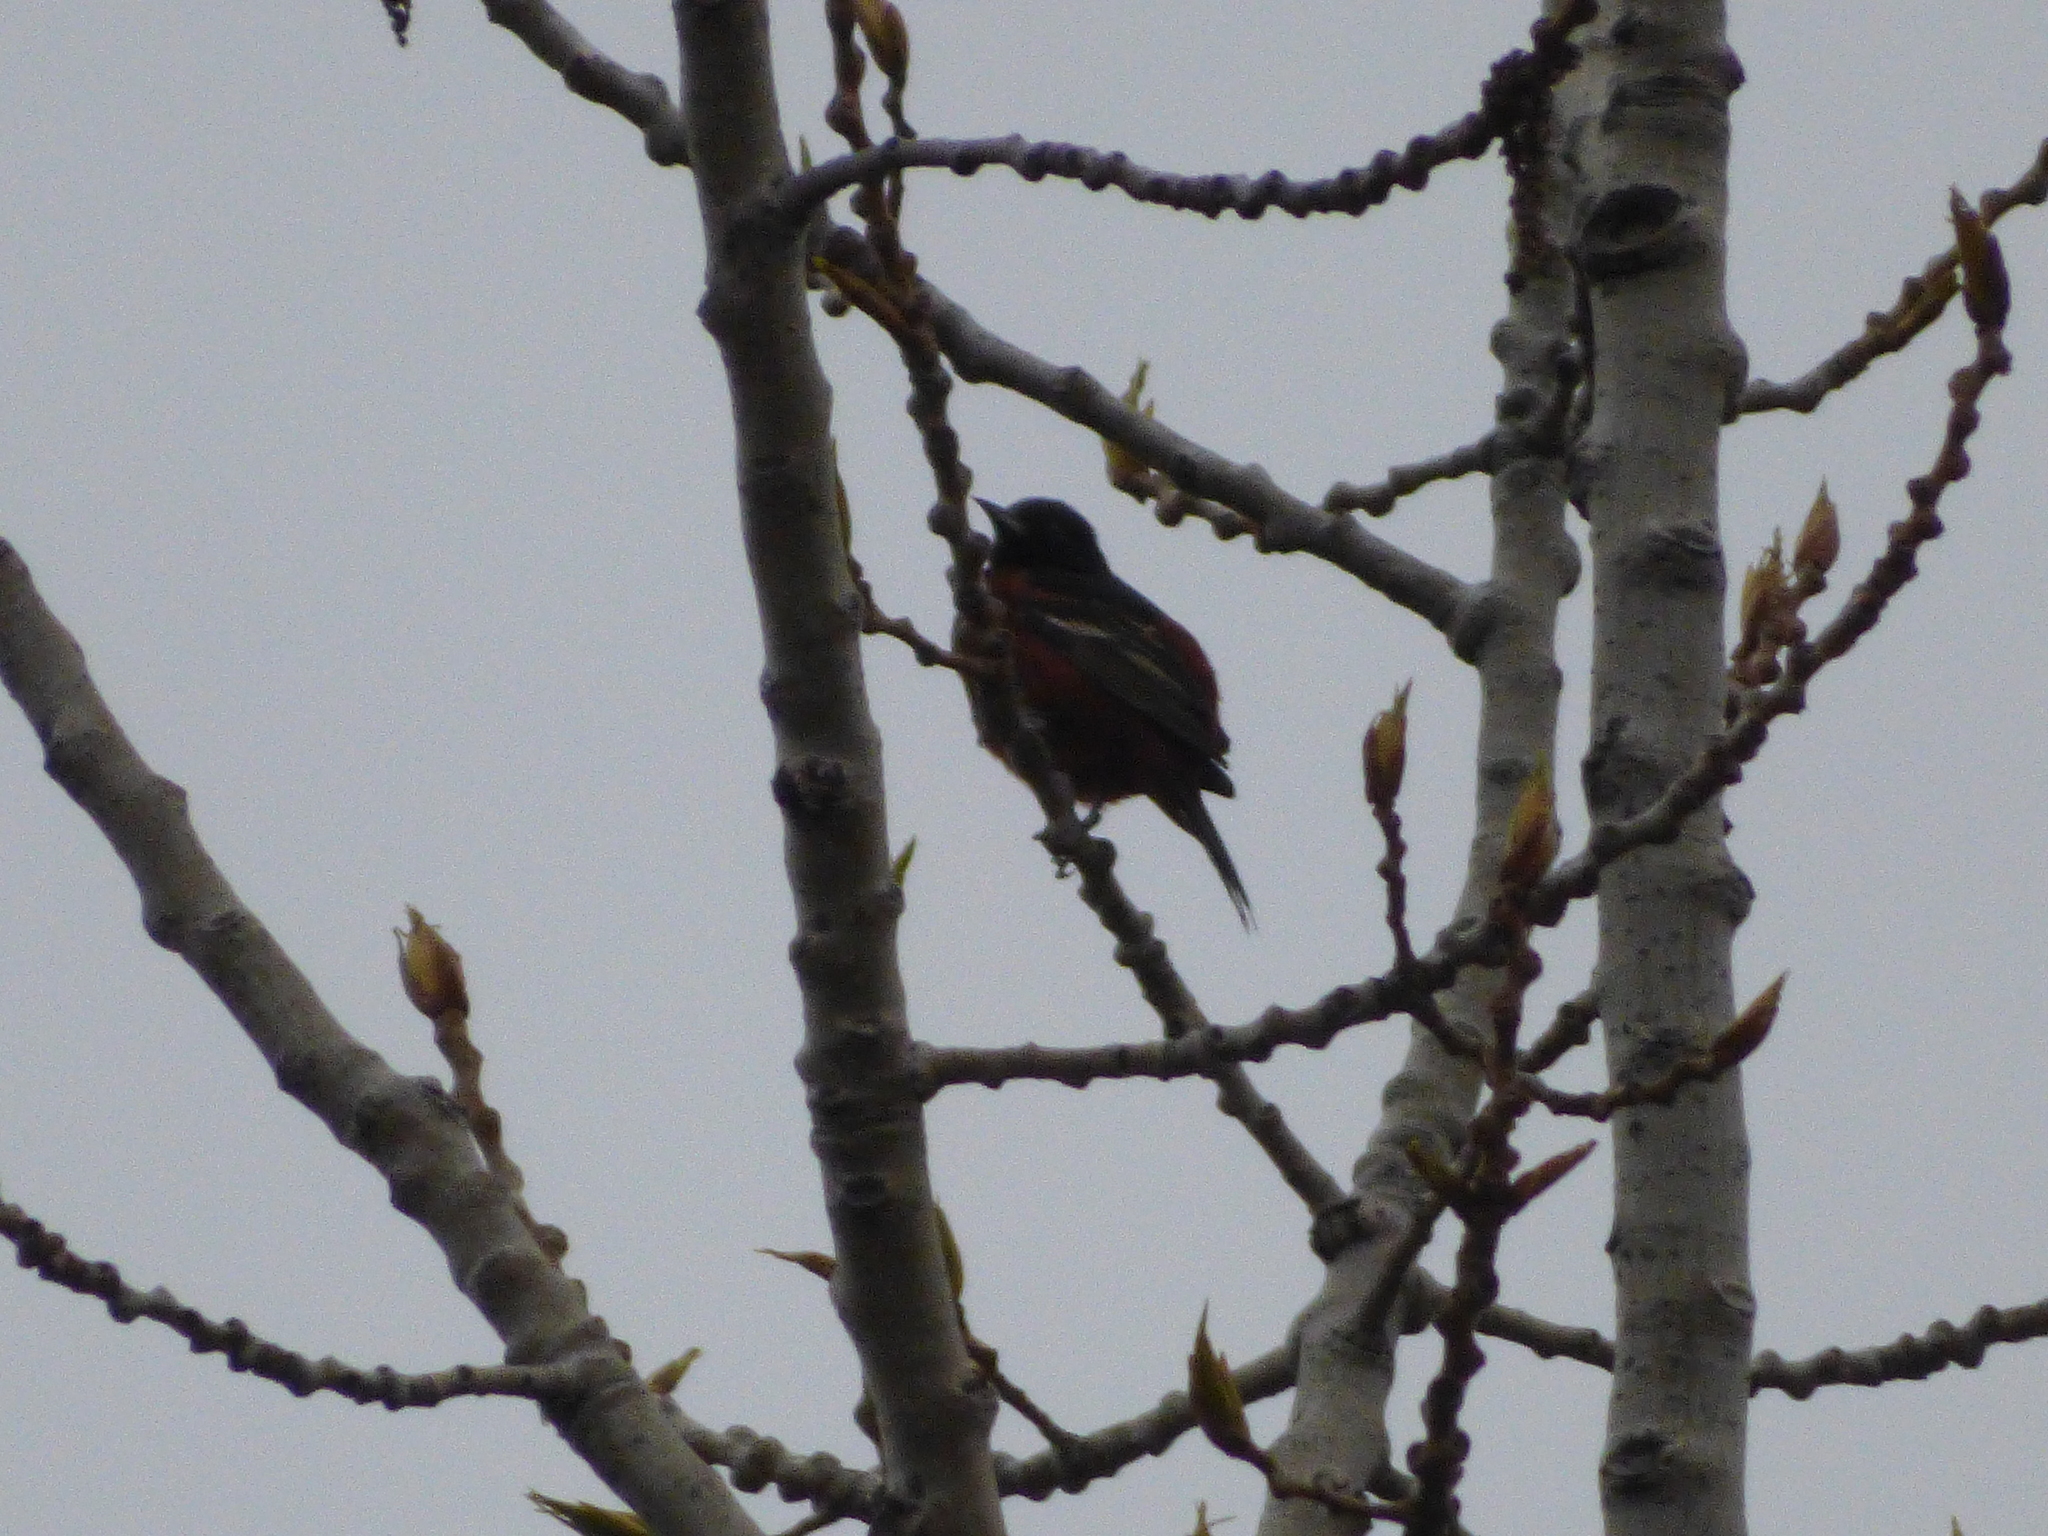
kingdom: Animalia
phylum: Chordata
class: Aves
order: Passeriformes
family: Icteridae
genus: Icterus
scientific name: Icterus spurius
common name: Orchard oriole
